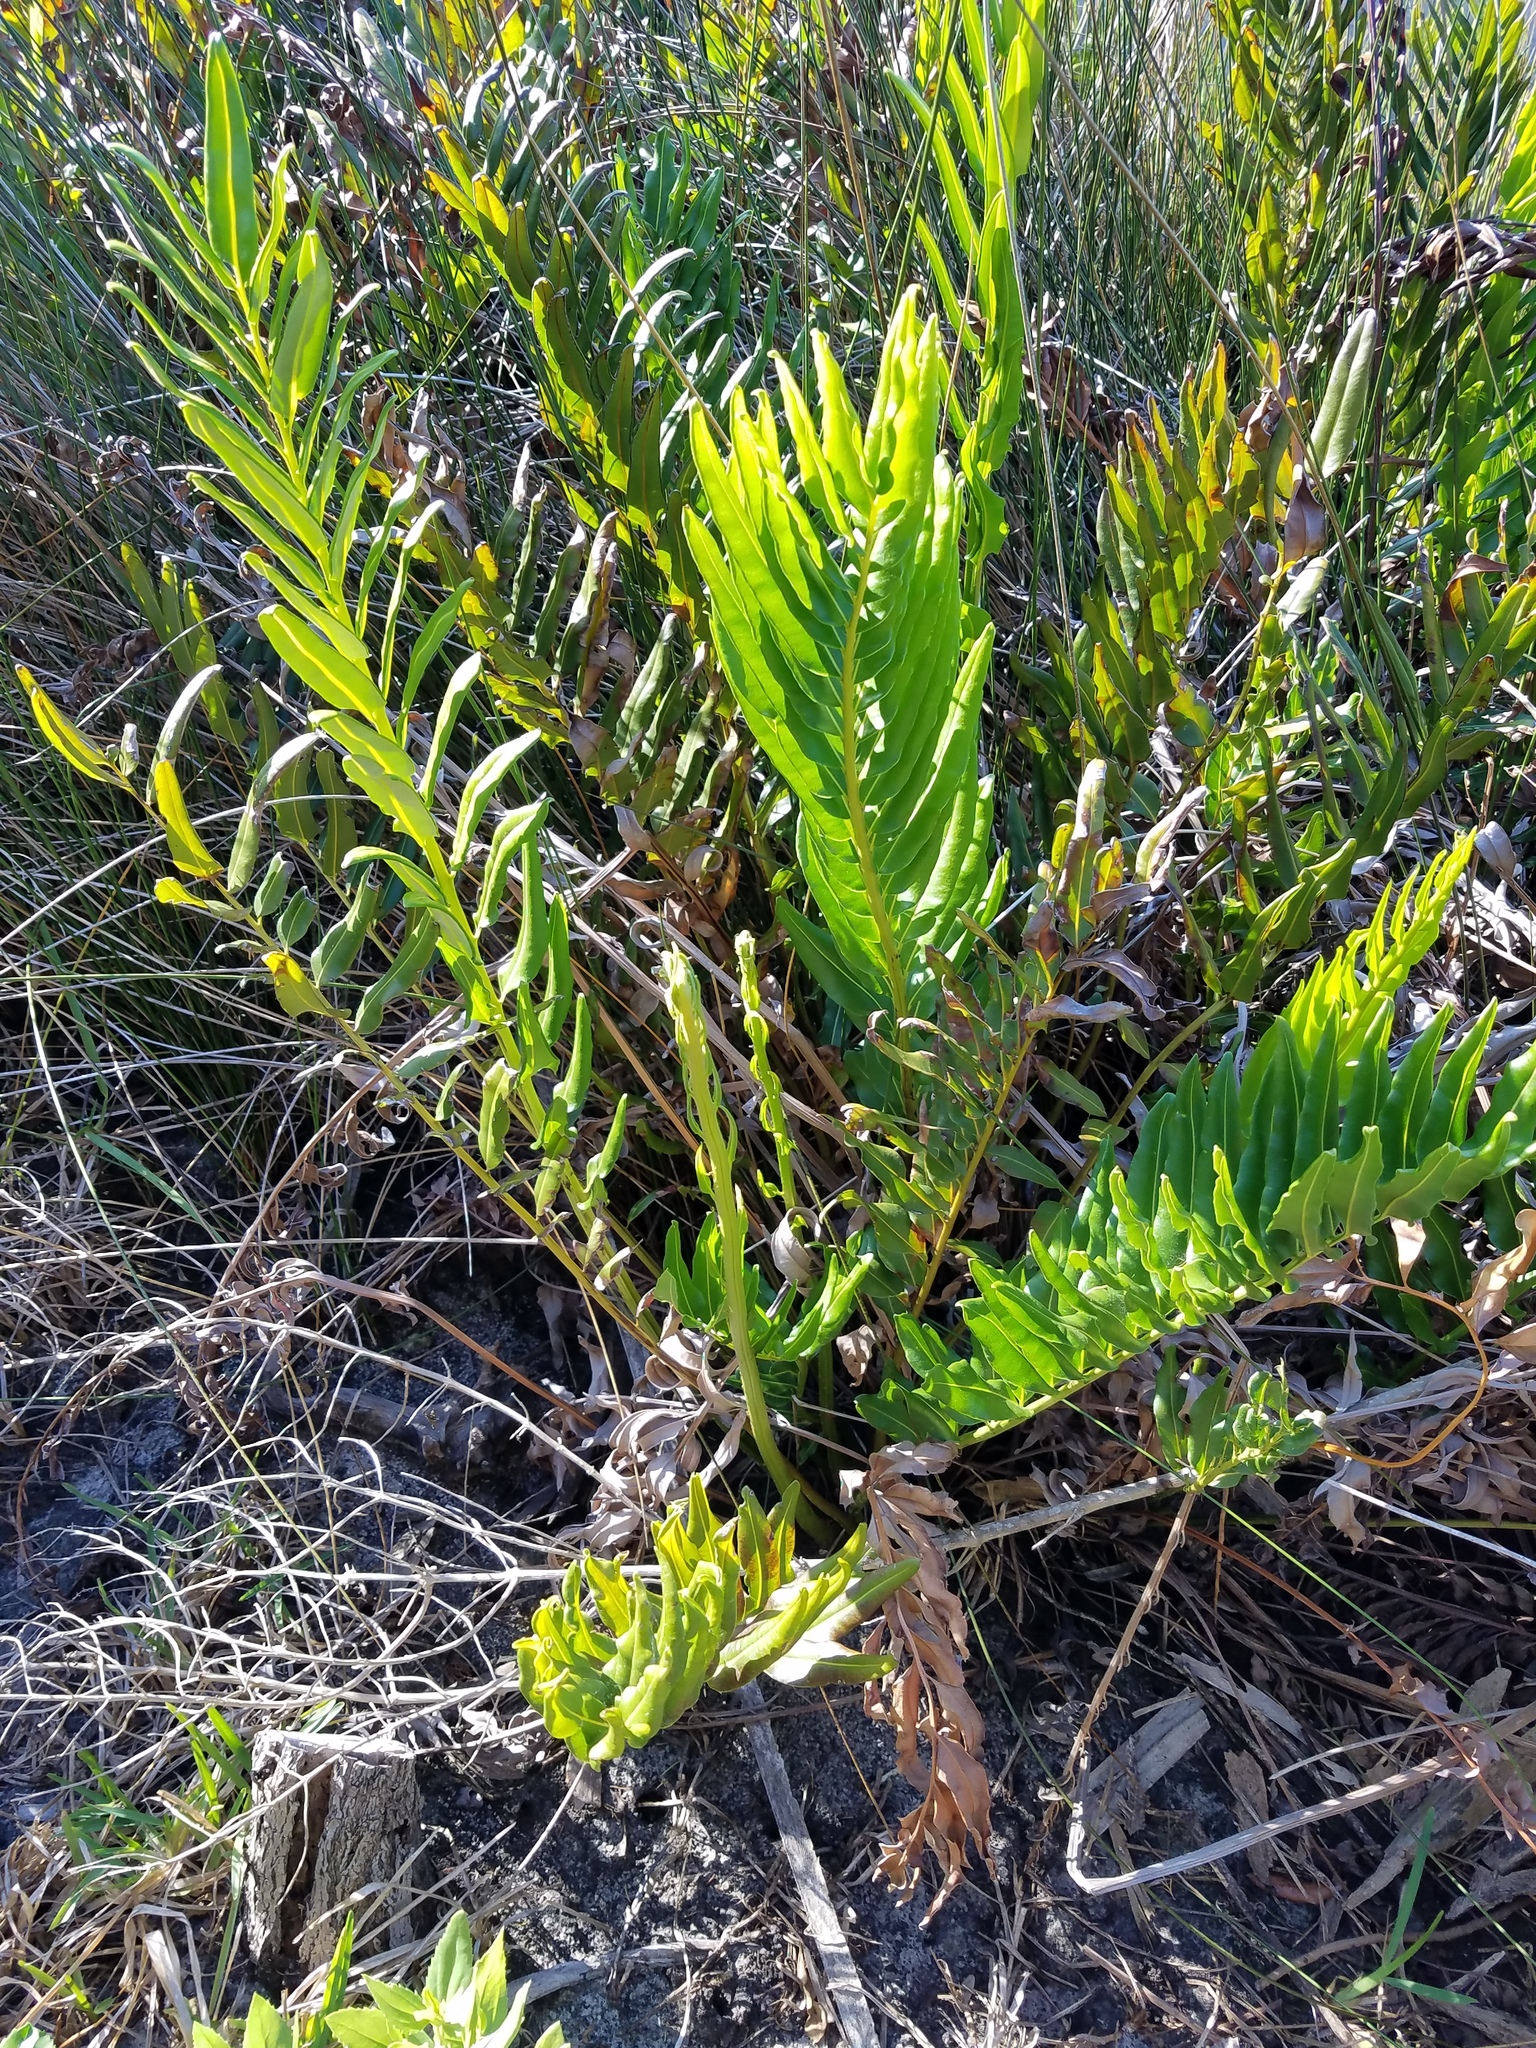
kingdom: Plantae
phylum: Tracheophyta
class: Polypodiopsida
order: Polypodiales
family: Pteridaceae
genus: Acrostichum
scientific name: Acrostichum danaeifolium
